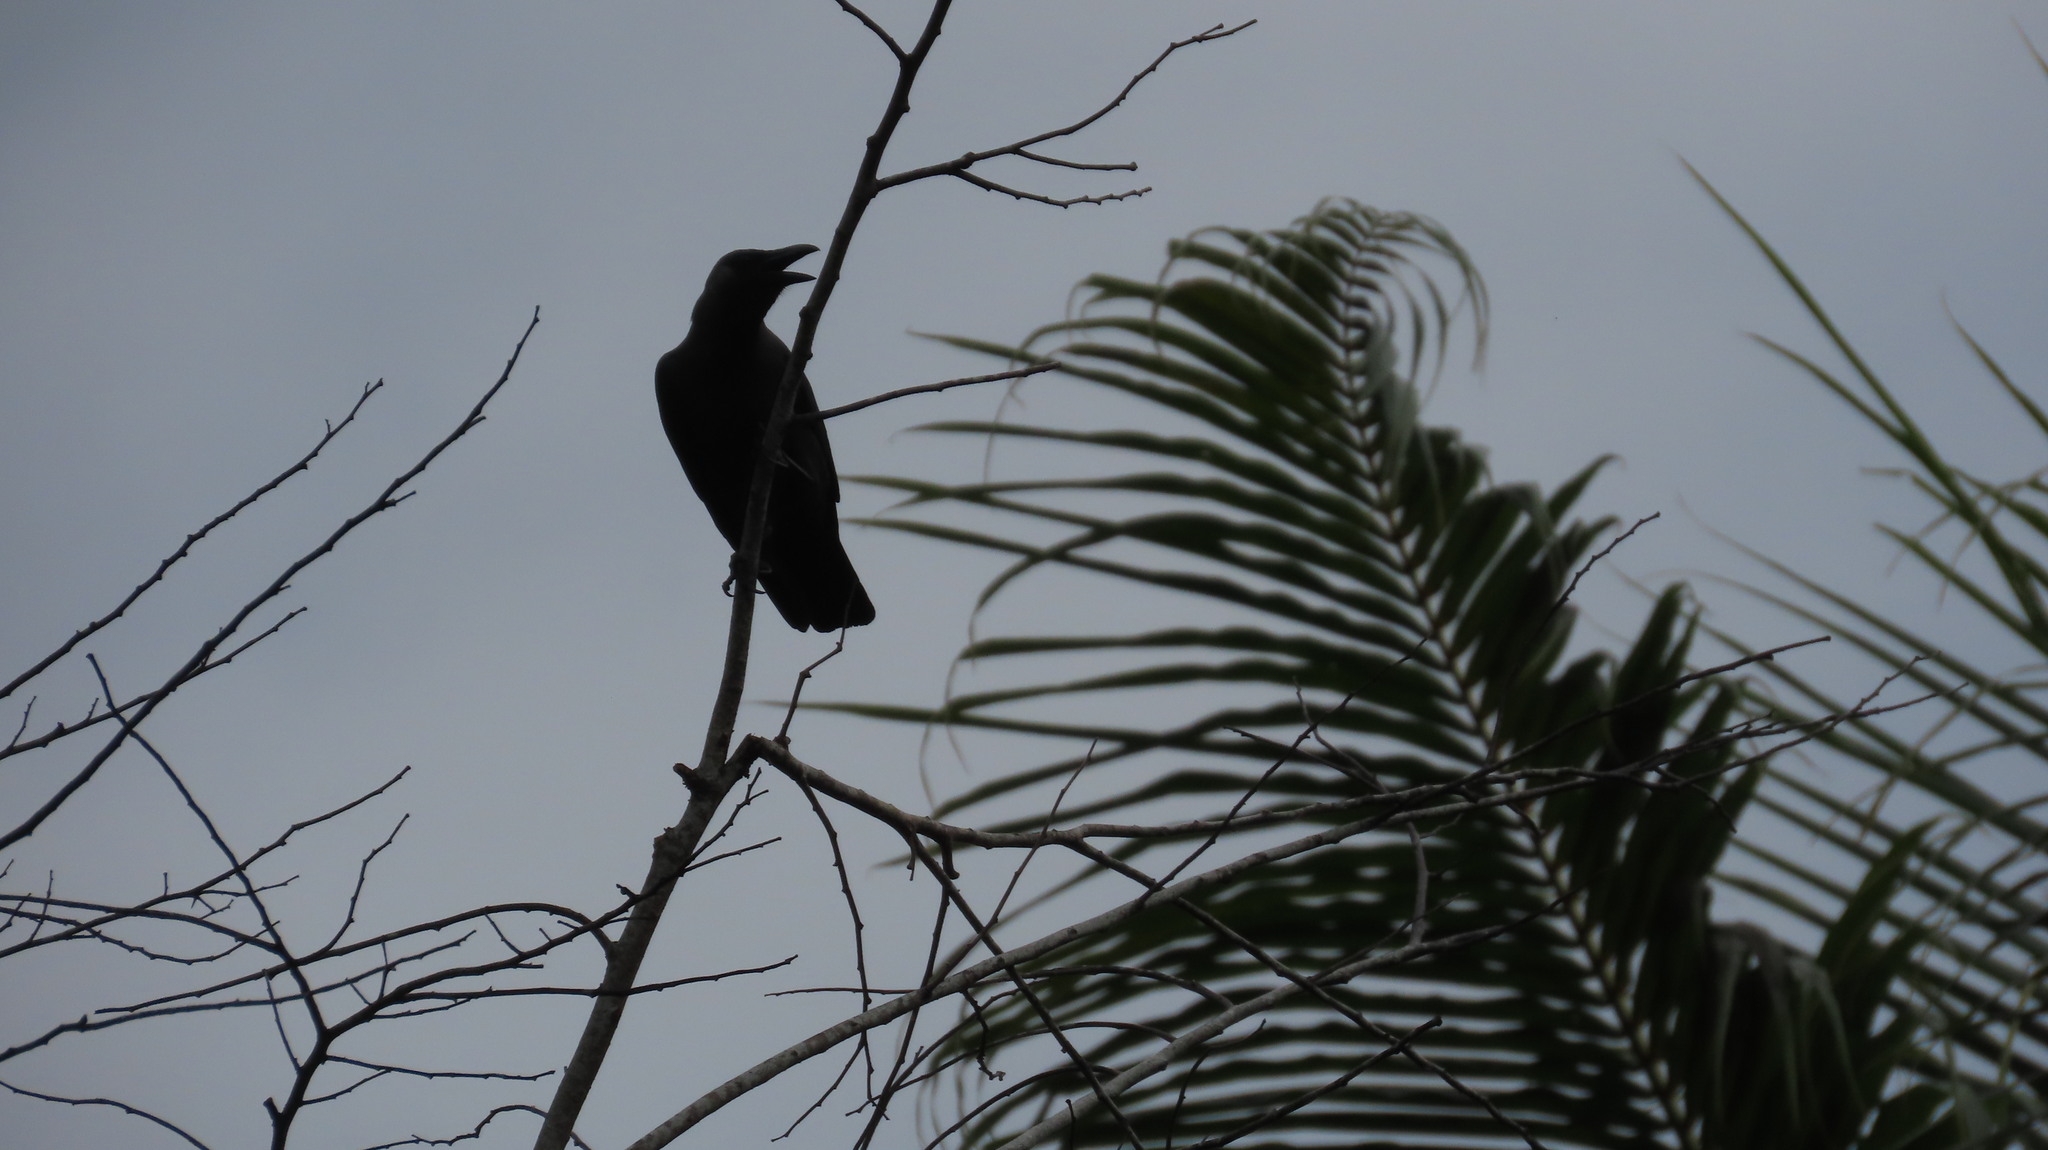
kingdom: Animalia
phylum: Chordata
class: Aves
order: Passeriformes
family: Corvidae
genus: Corvus
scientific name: Corvus splendens
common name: House crow
